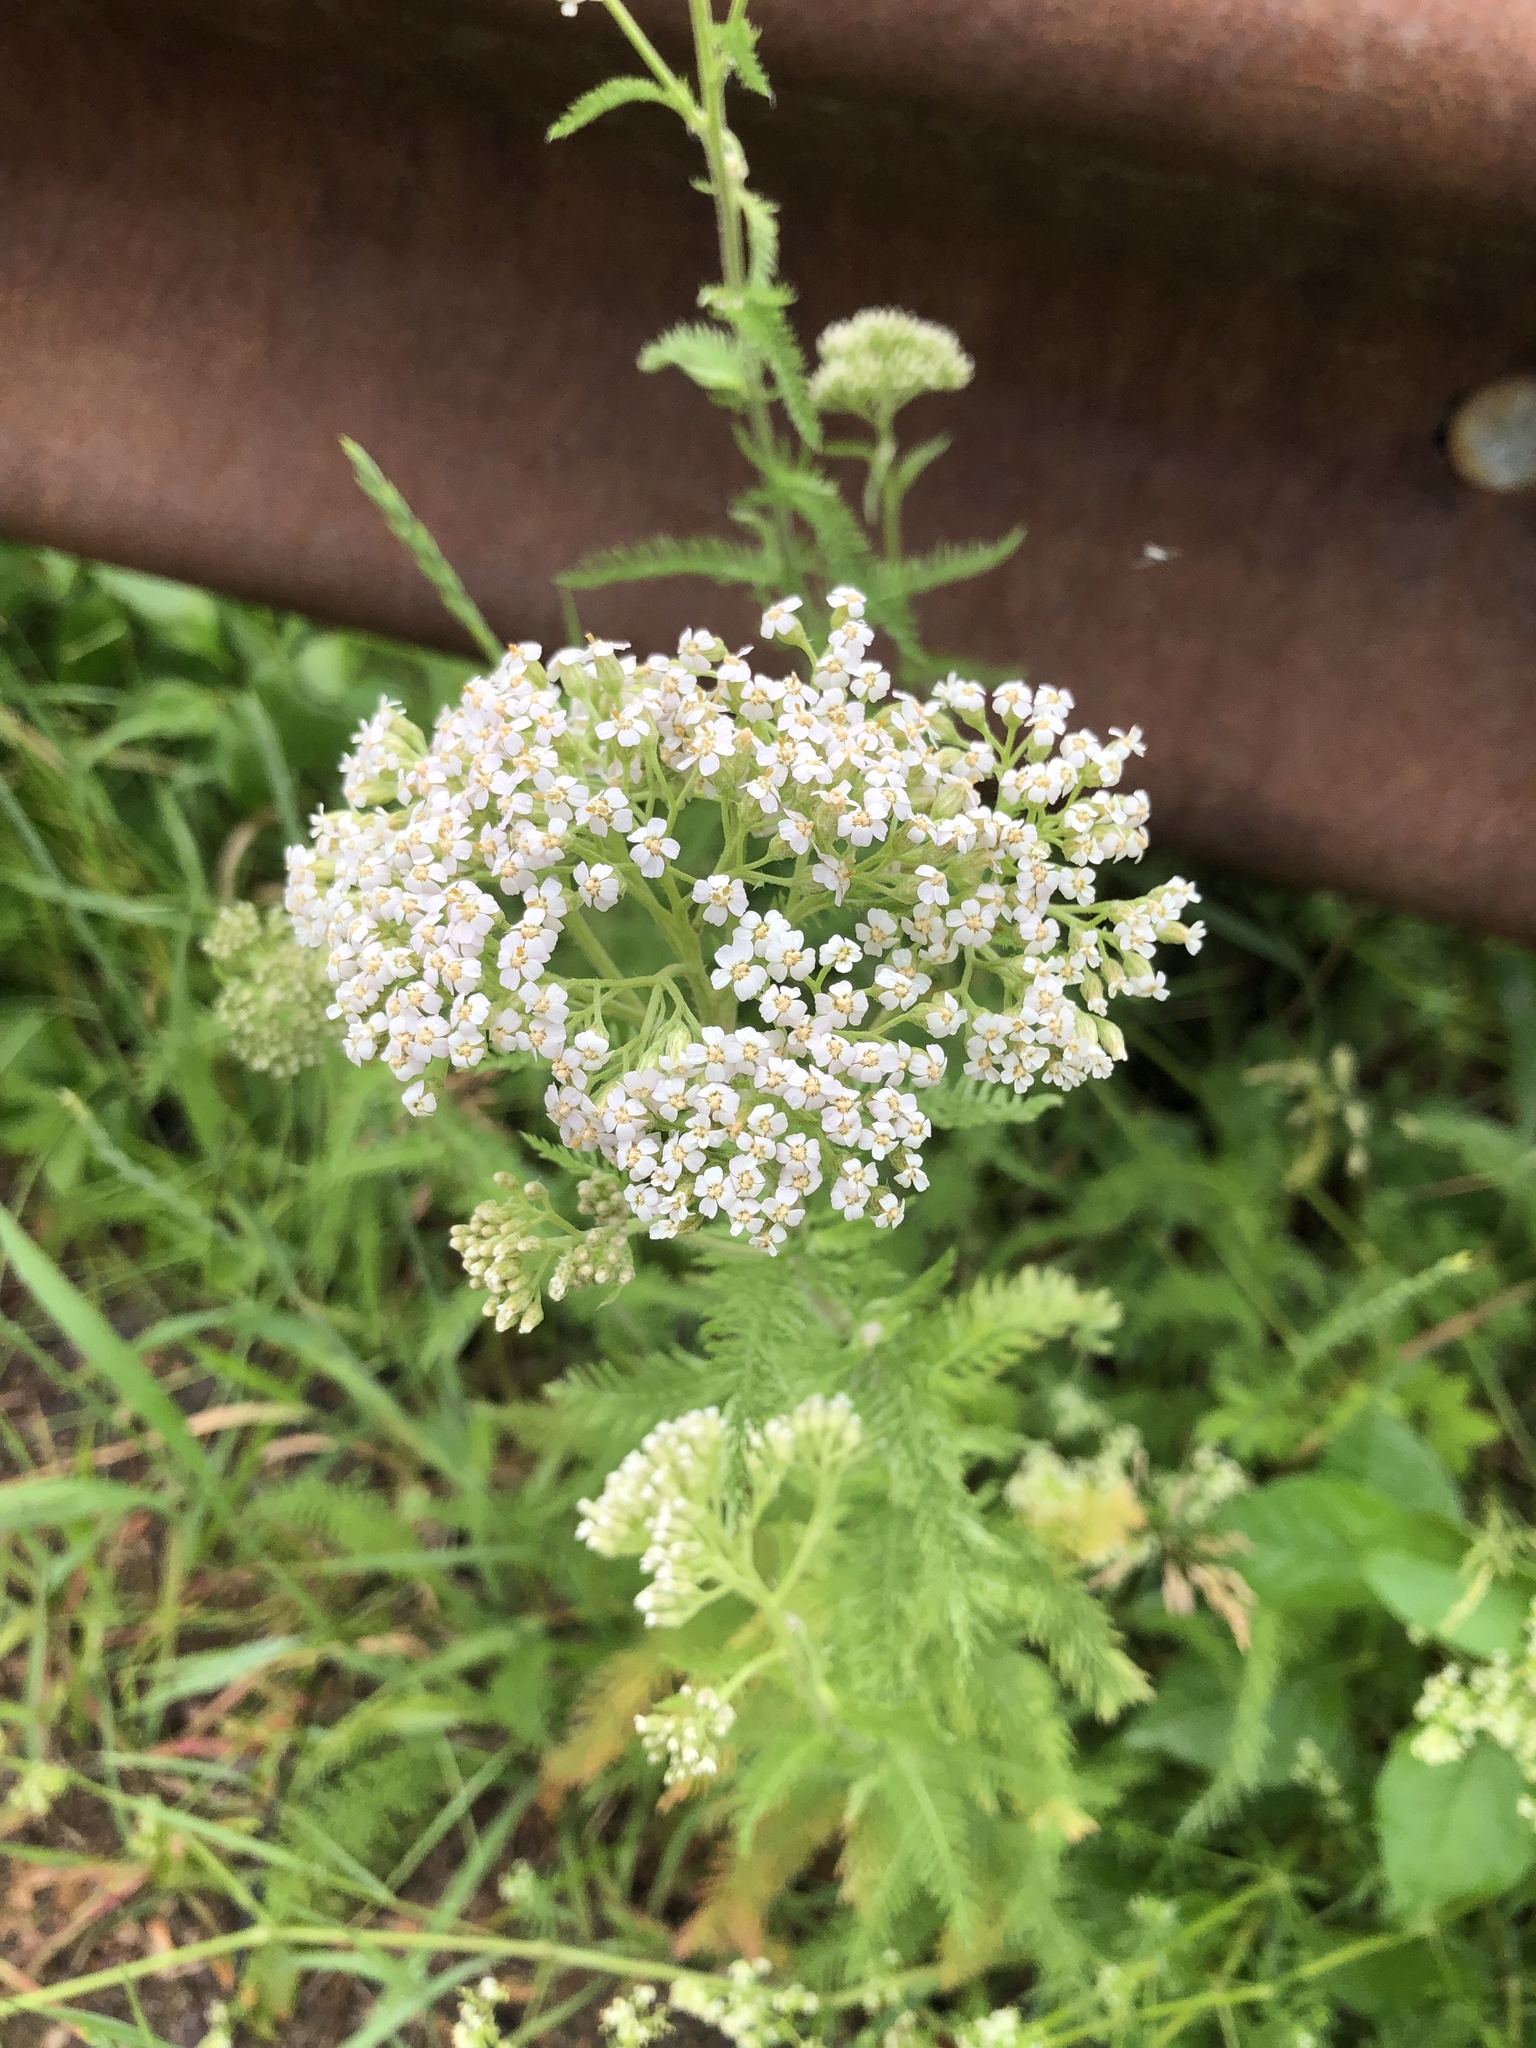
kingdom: Plantae
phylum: Tracheophyta
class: Magnoliopsida
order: Asterales
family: Asteraceae
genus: Achillea
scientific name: Achillea millefolium
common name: Yarrow
